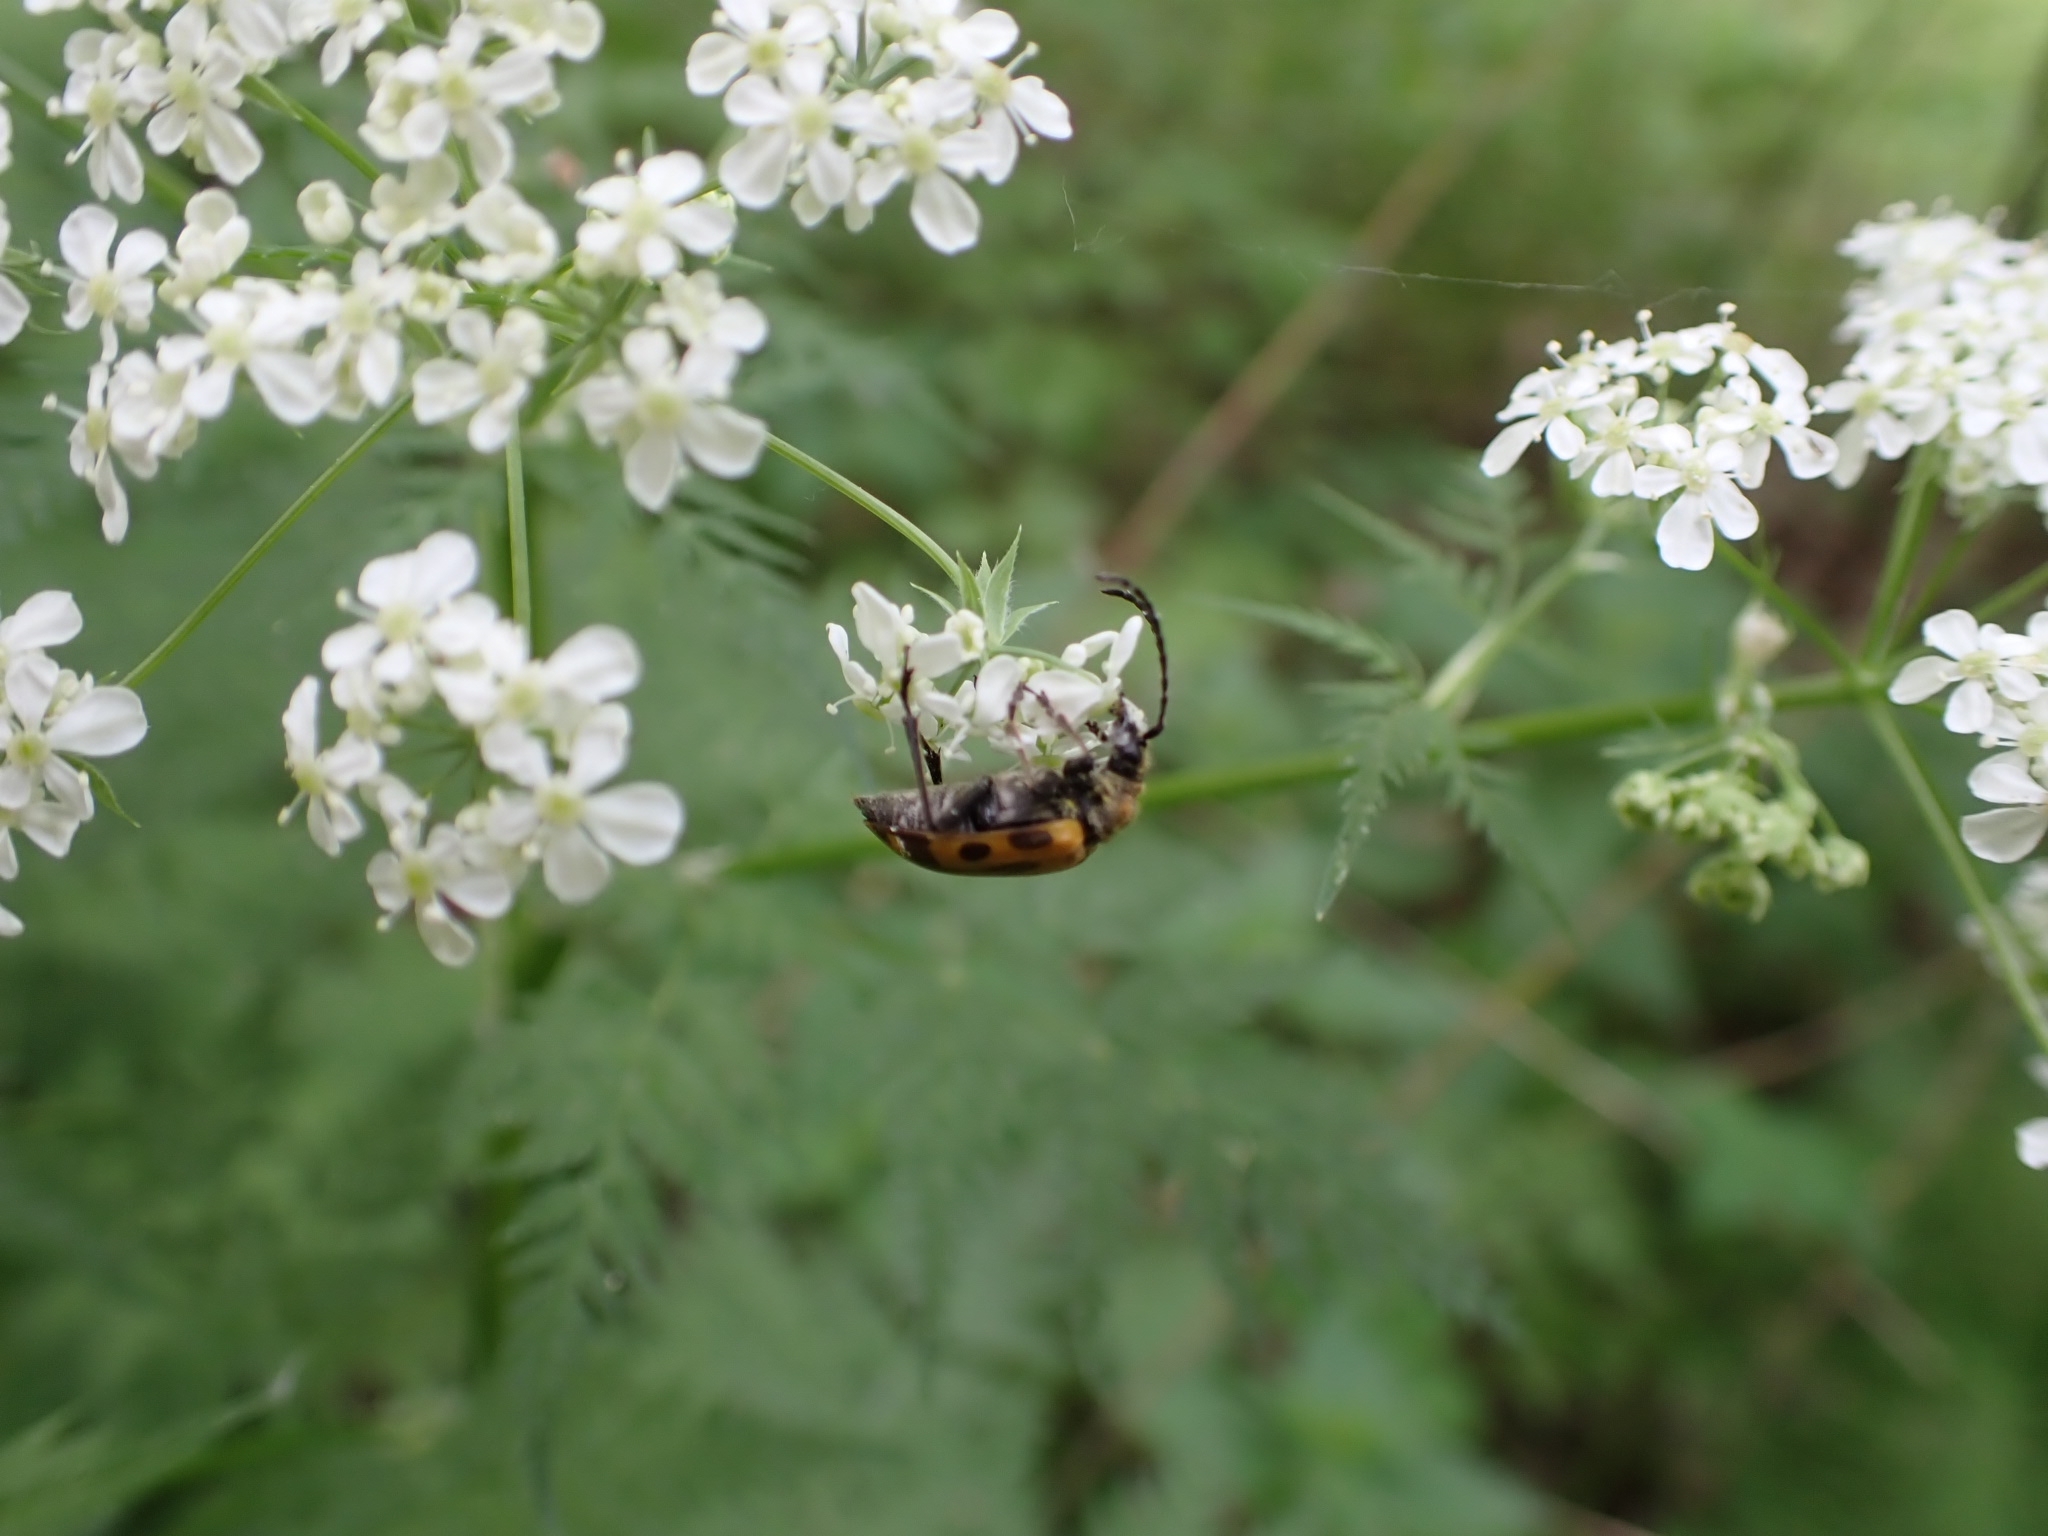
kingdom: Animalia
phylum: Arthropoda
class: Insecta
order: Coleoptera
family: Cerambycidae
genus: Brachyta
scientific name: Brachyta interrogationis
